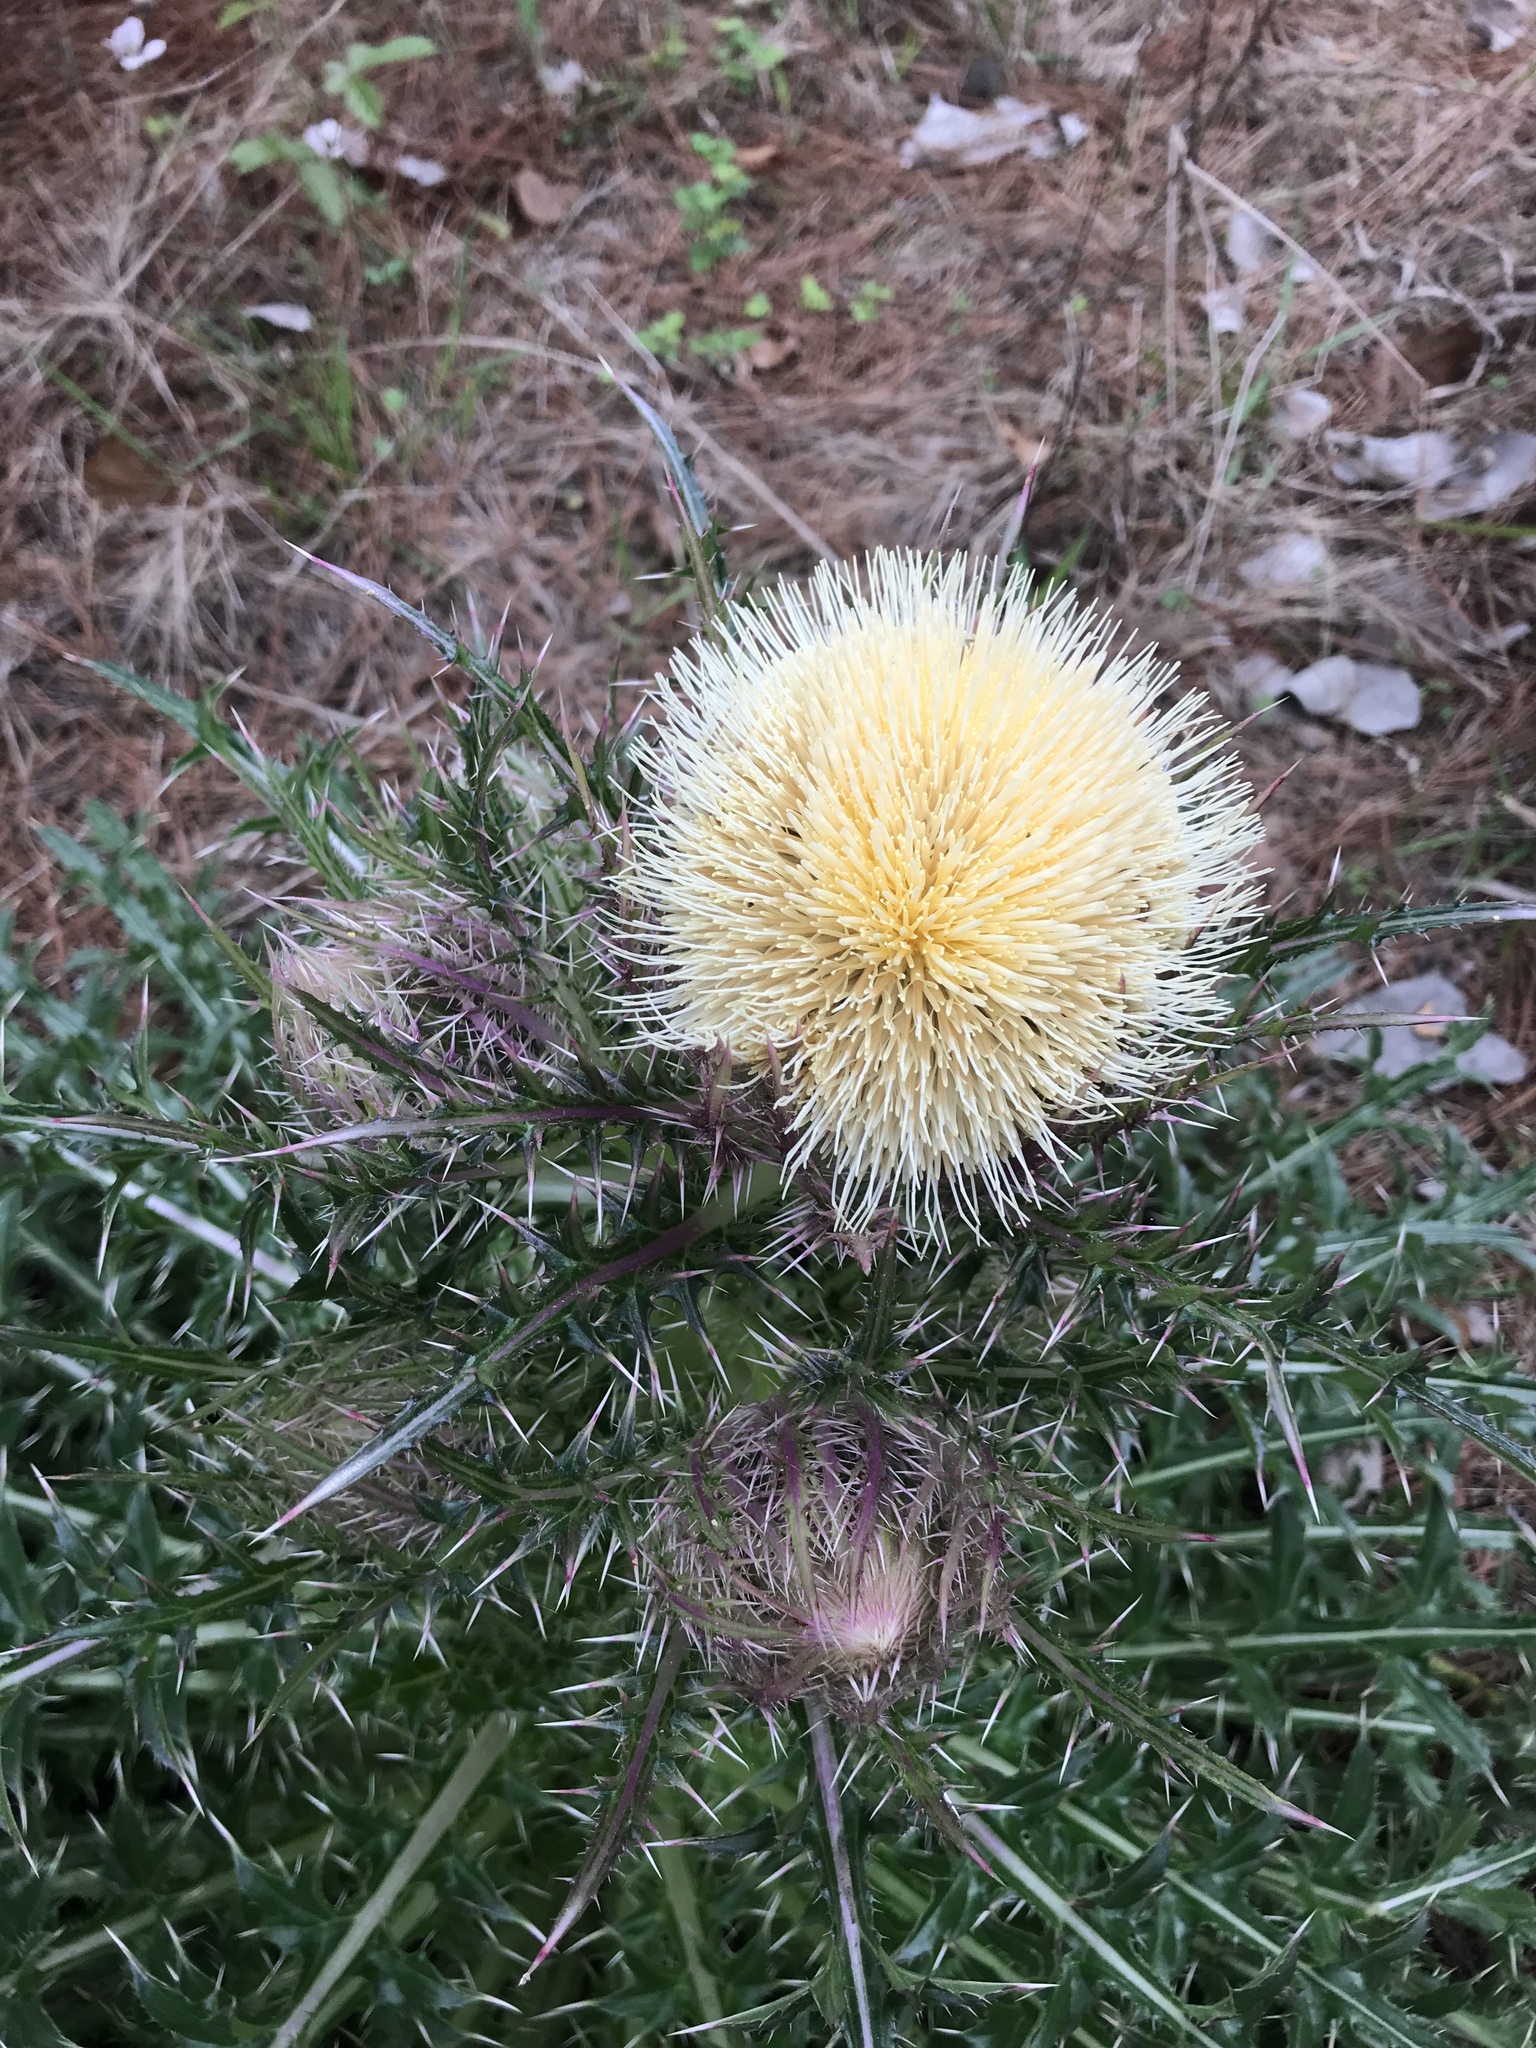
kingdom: Plantae
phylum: Tracheophyta
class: Magnoliopsida
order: Asterales
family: Asteraceae
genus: Cirsium
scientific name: Cirsium horridulum
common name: Bristly thistle
